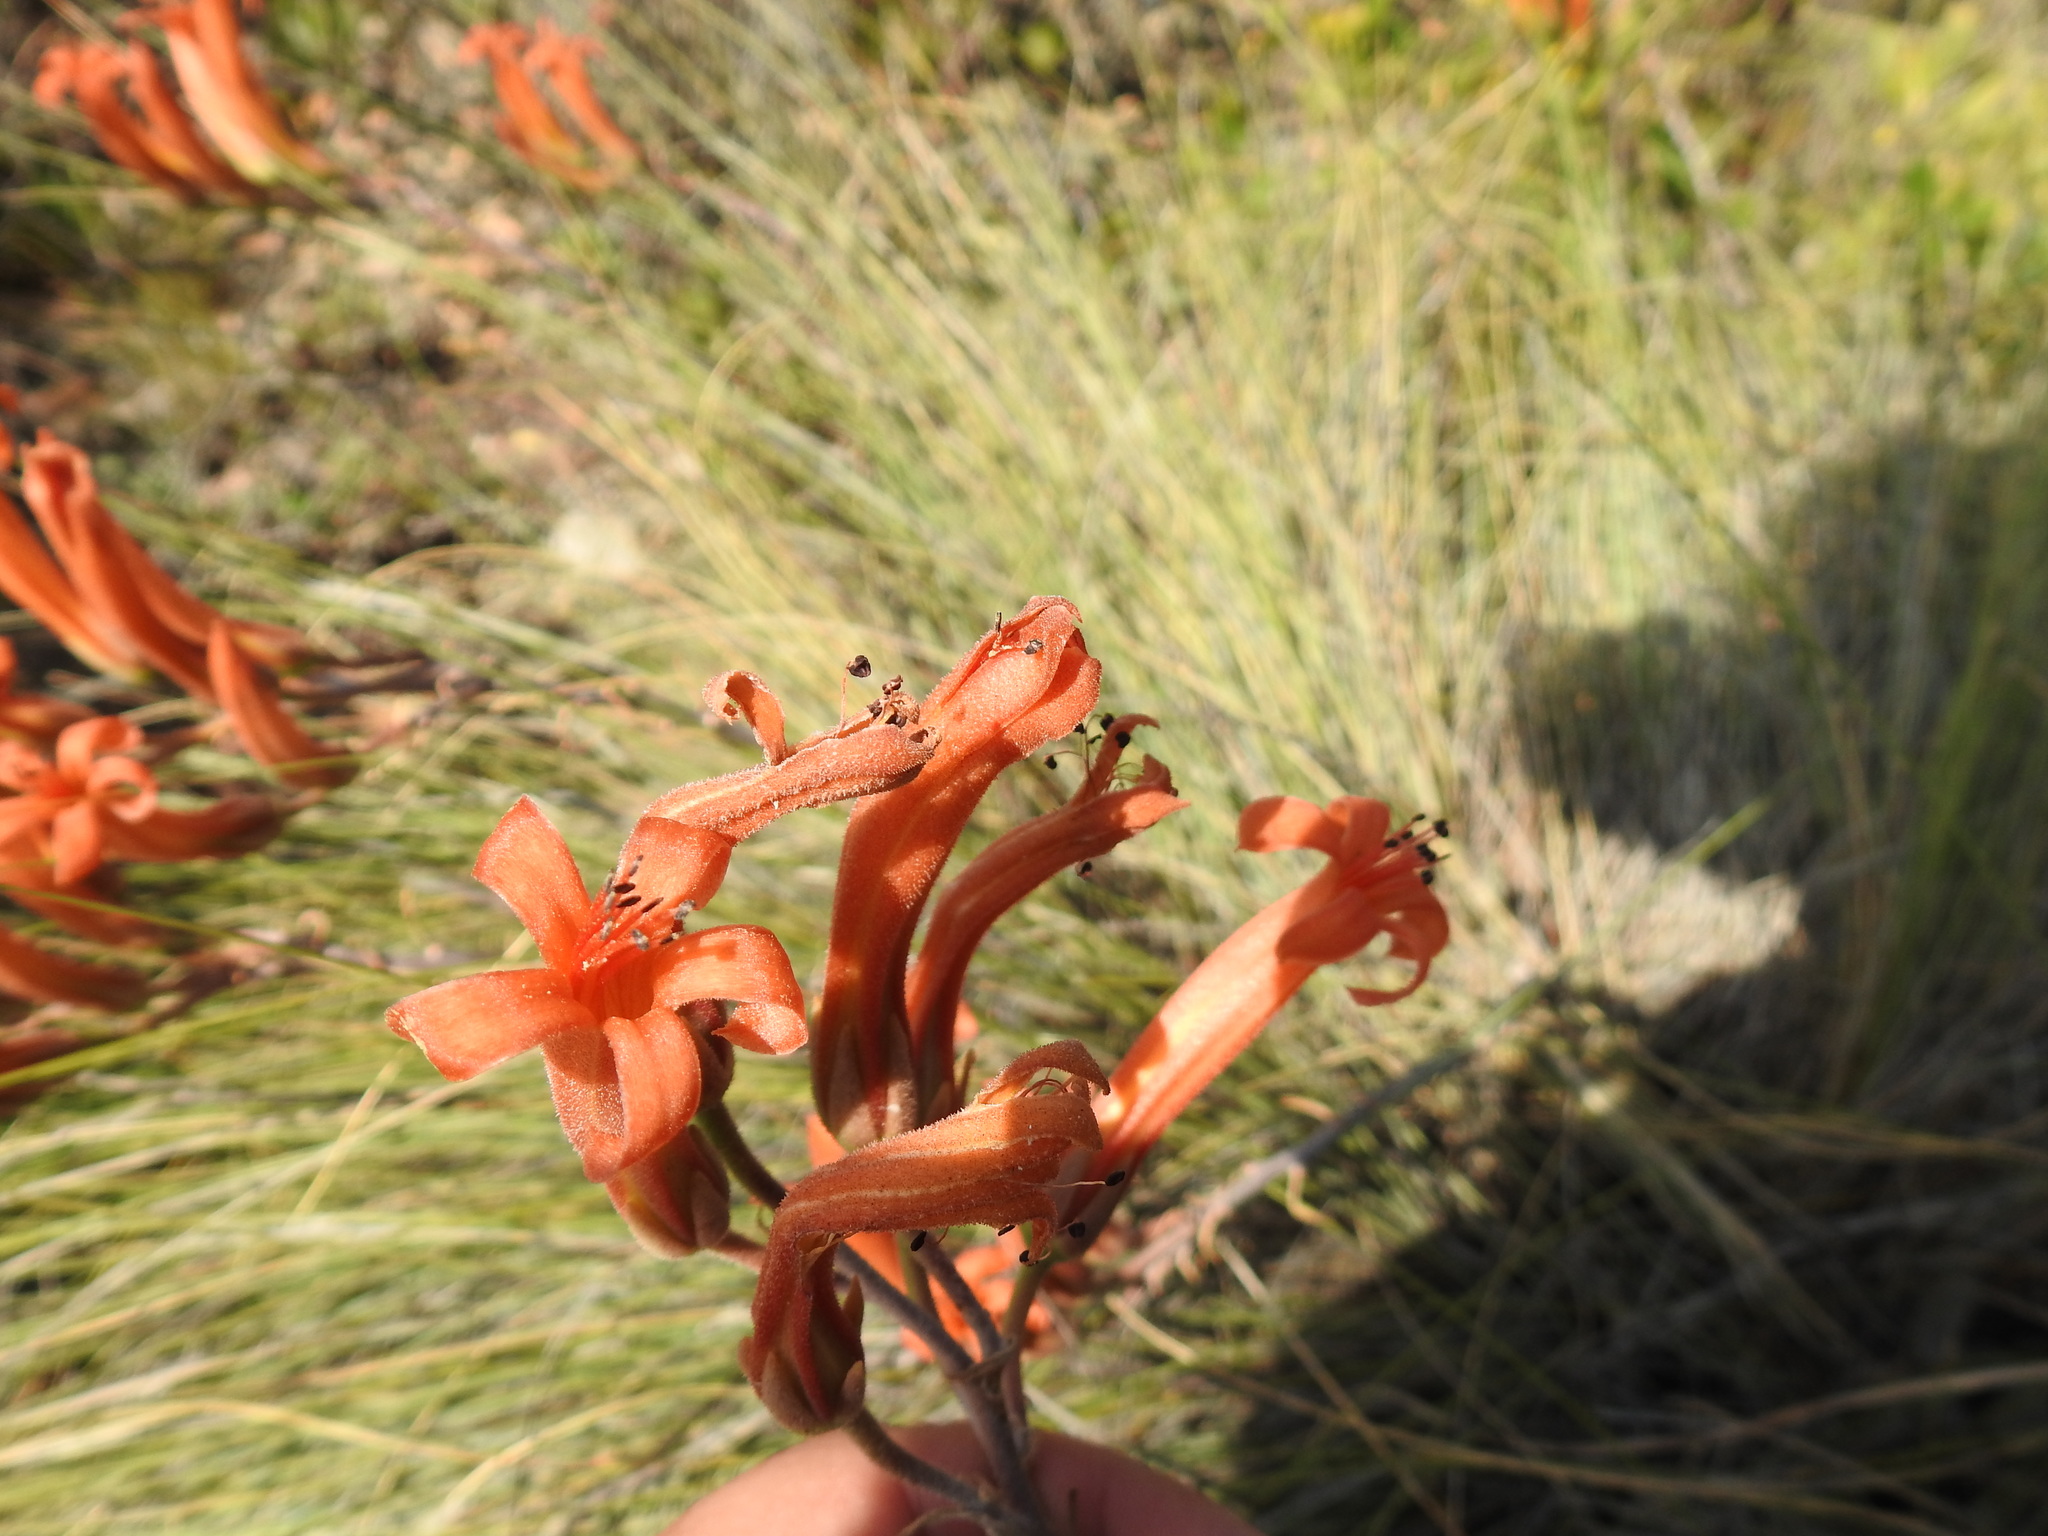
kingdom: Plantae
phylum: Tracheophyta
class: Magnoliopsida
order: Saxifragales
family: Crassulaceae
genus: Tylecodon
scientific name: Tylecodon grandiflorus
